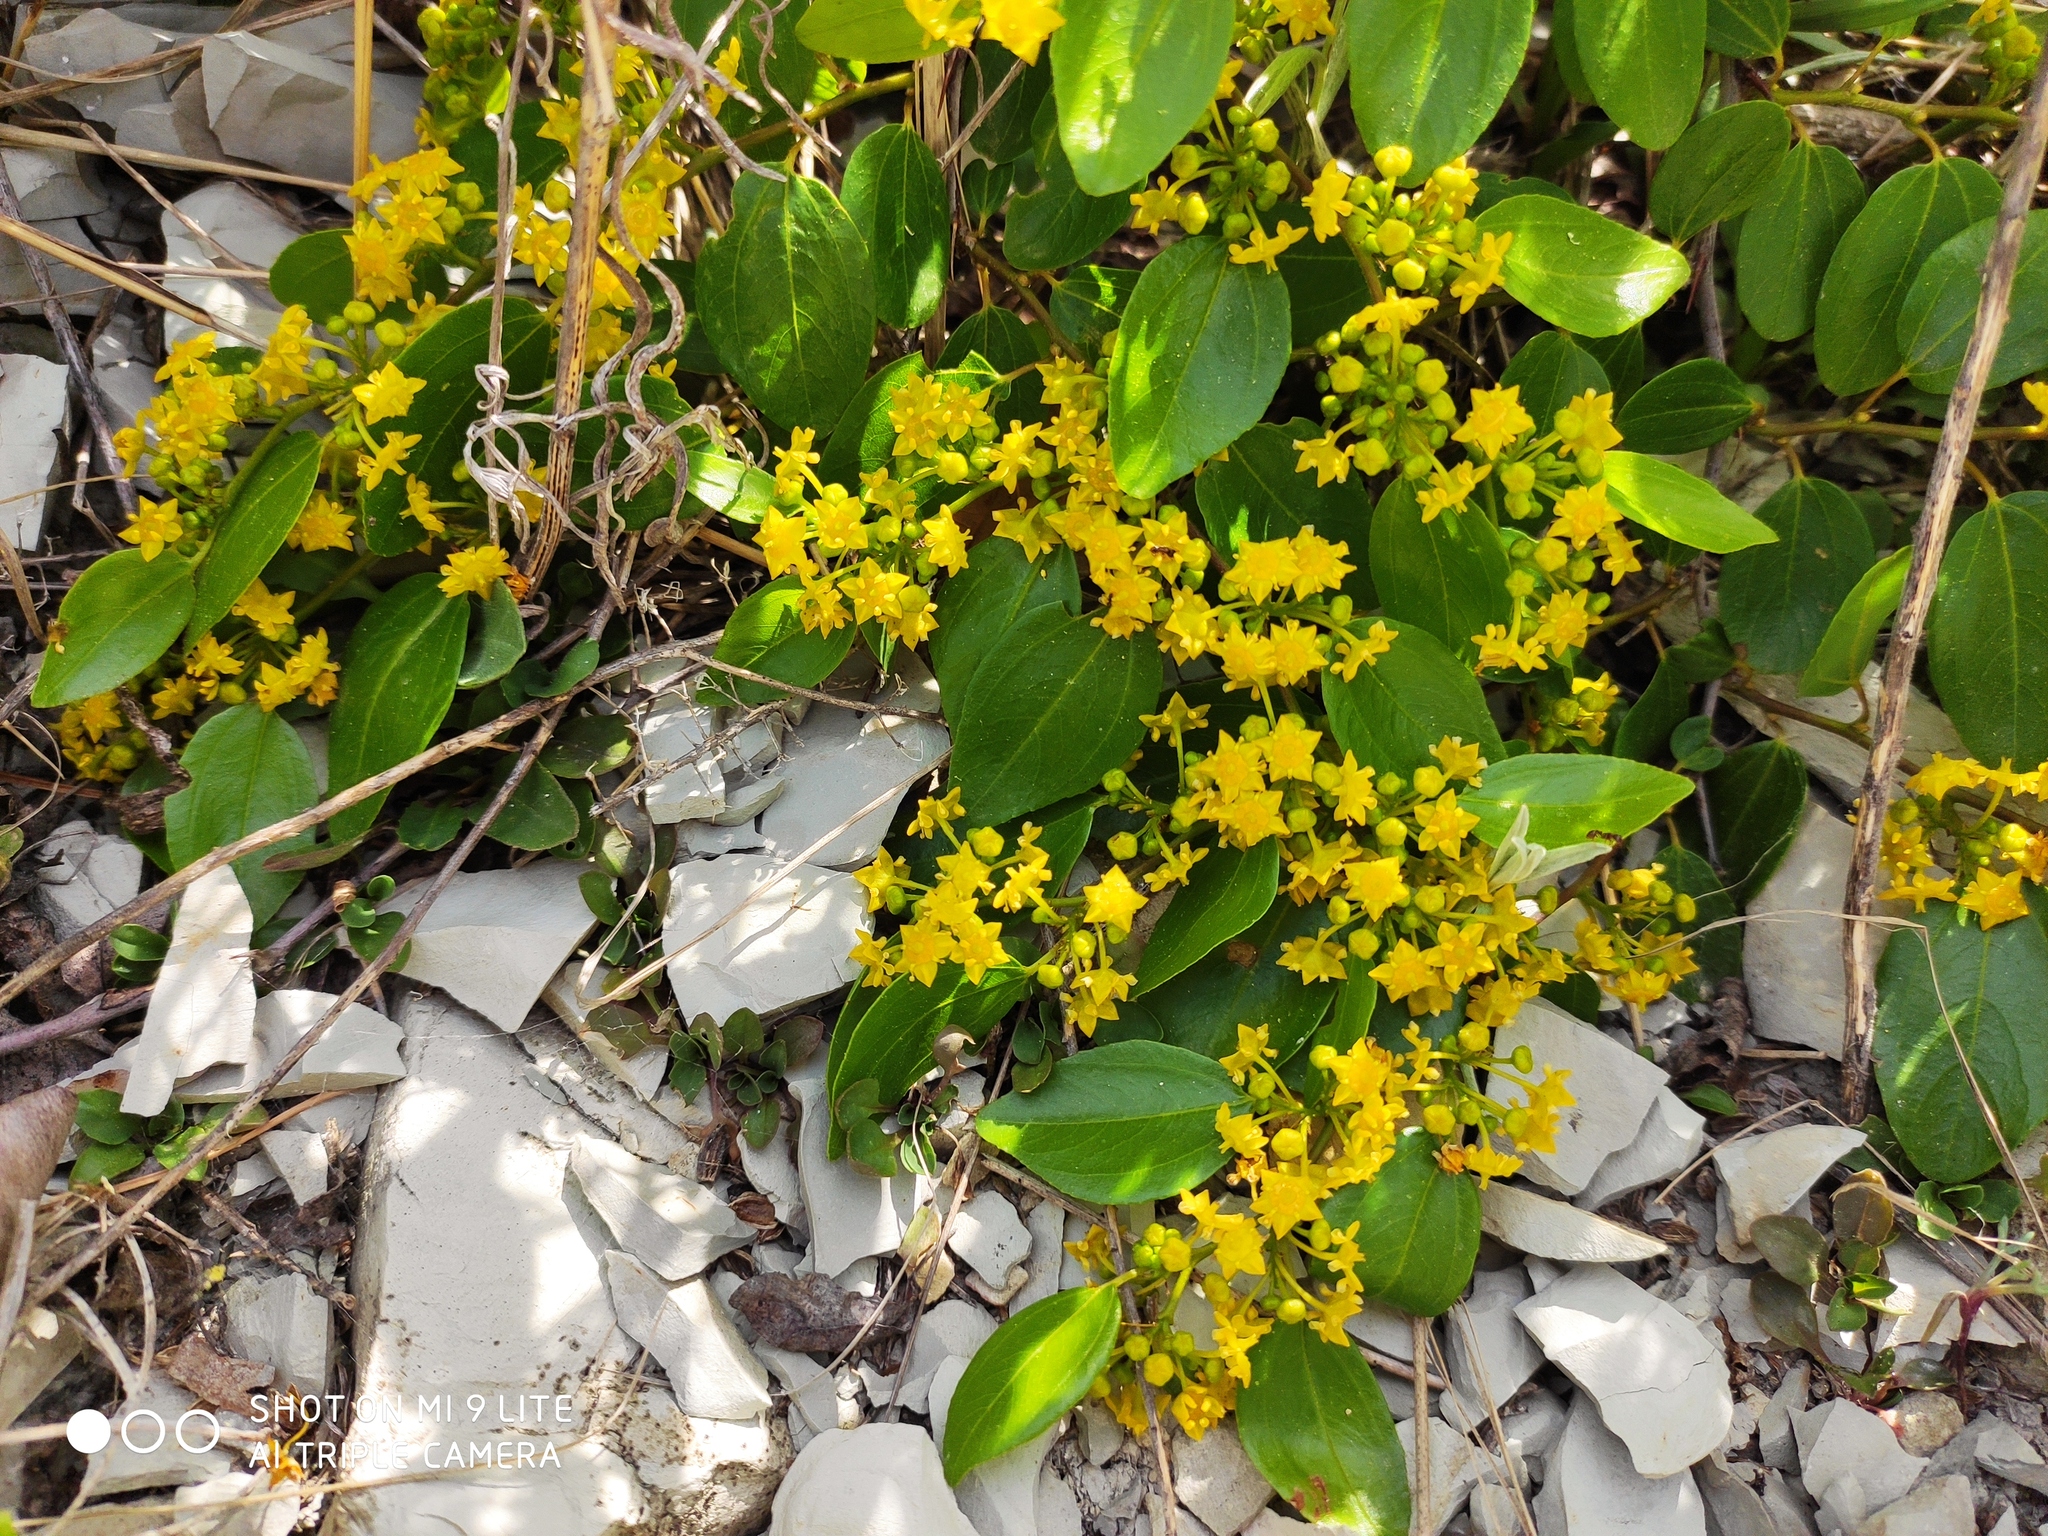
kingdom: Plantae
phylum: Tracheophyta
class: Magnoliopsida
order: Rosales
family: Rhamnaceae
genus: Paliurus
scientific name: Paliurus spina-christi
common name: Jeruselem thorn
